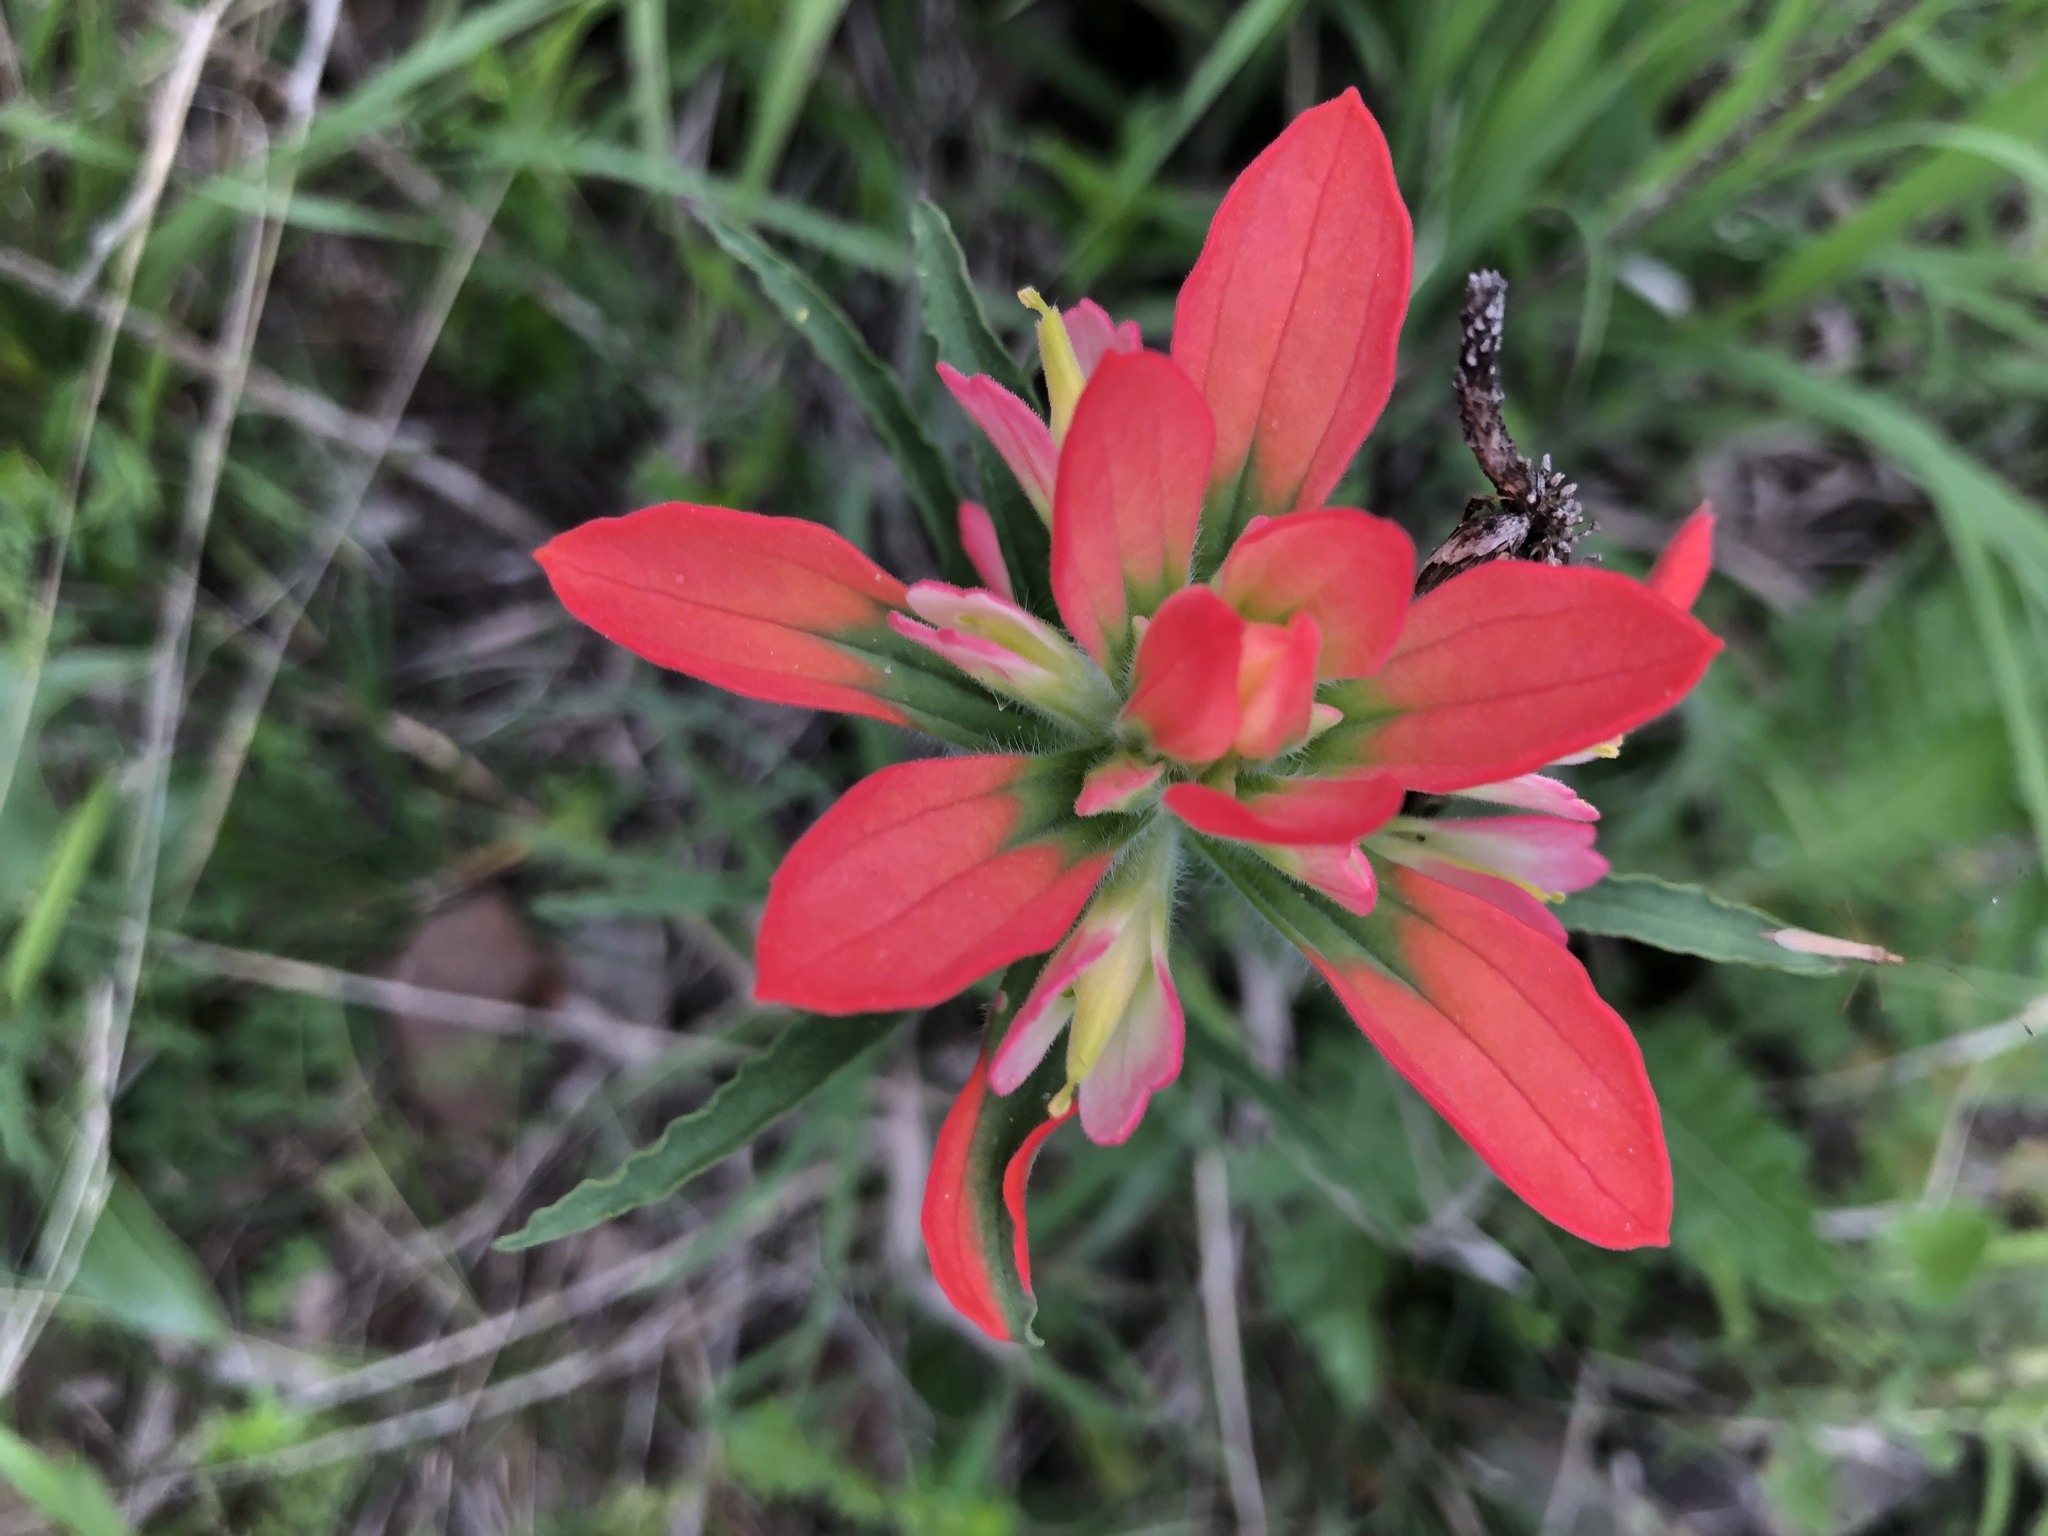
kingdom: Plantae
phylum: Tracheophyta
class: Magnoliopsida
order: Lamiales
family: Orobanchaceae
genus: Castilleja
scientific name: Castilleja indivisa
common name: Texas paintbrush
